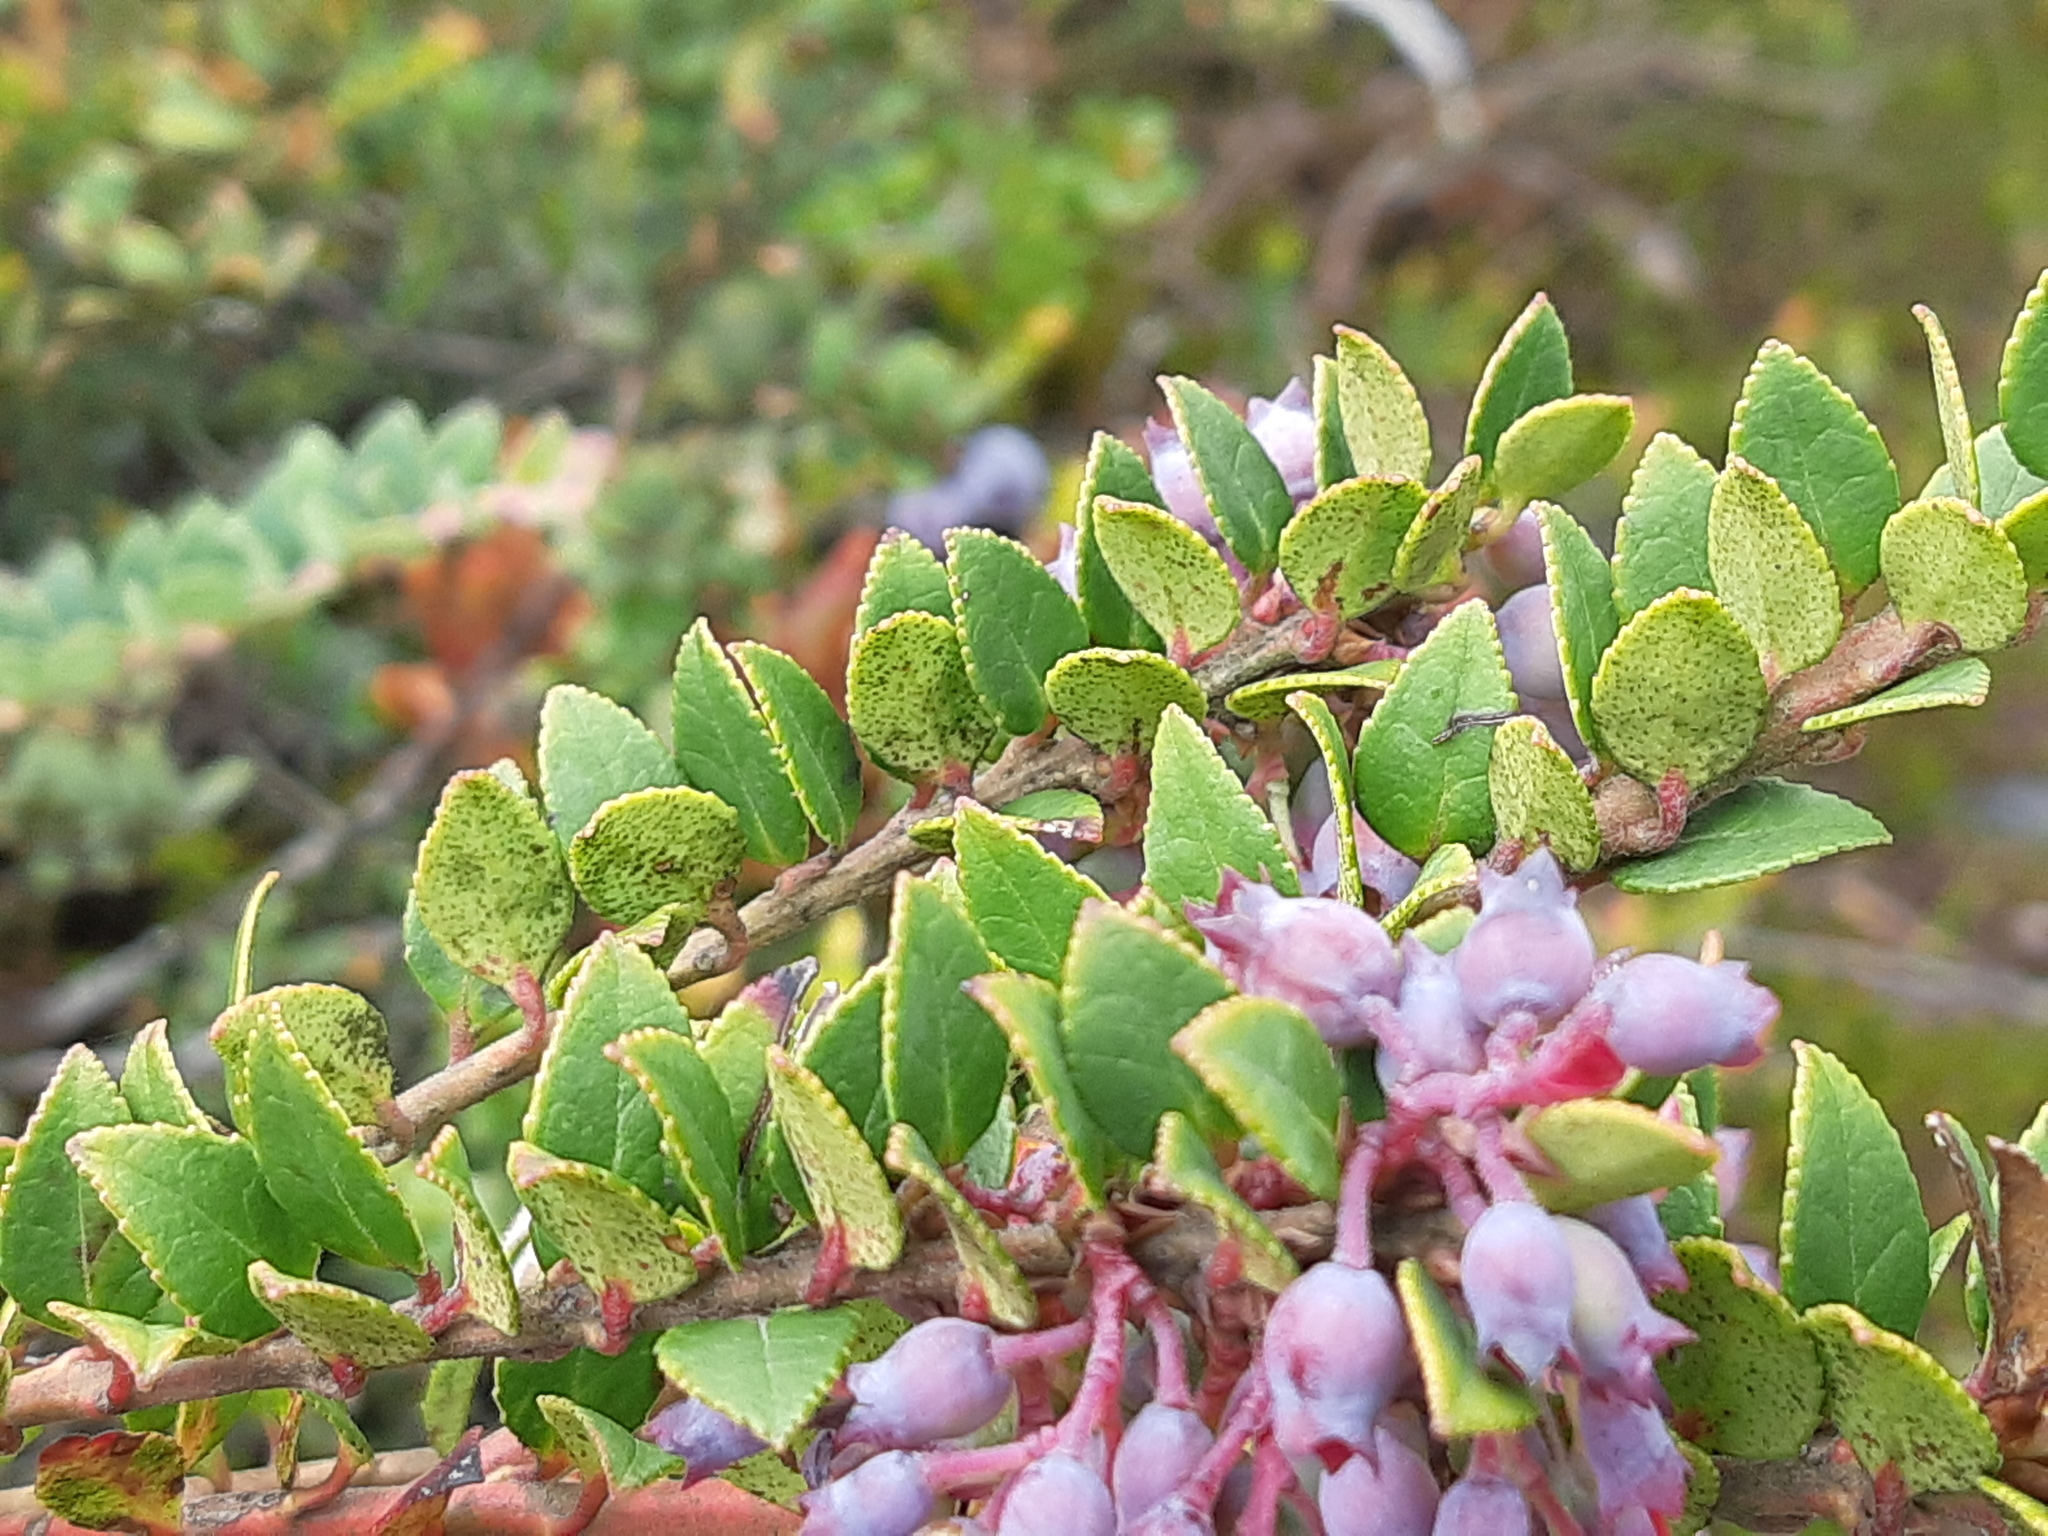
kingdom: Plantae
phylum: Tracheophyta
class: Magnoliopsida
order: Ericales
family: Ericaceae
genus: Vaccinium
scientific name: Vaccinium floribundum
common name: Colombian blueberry
